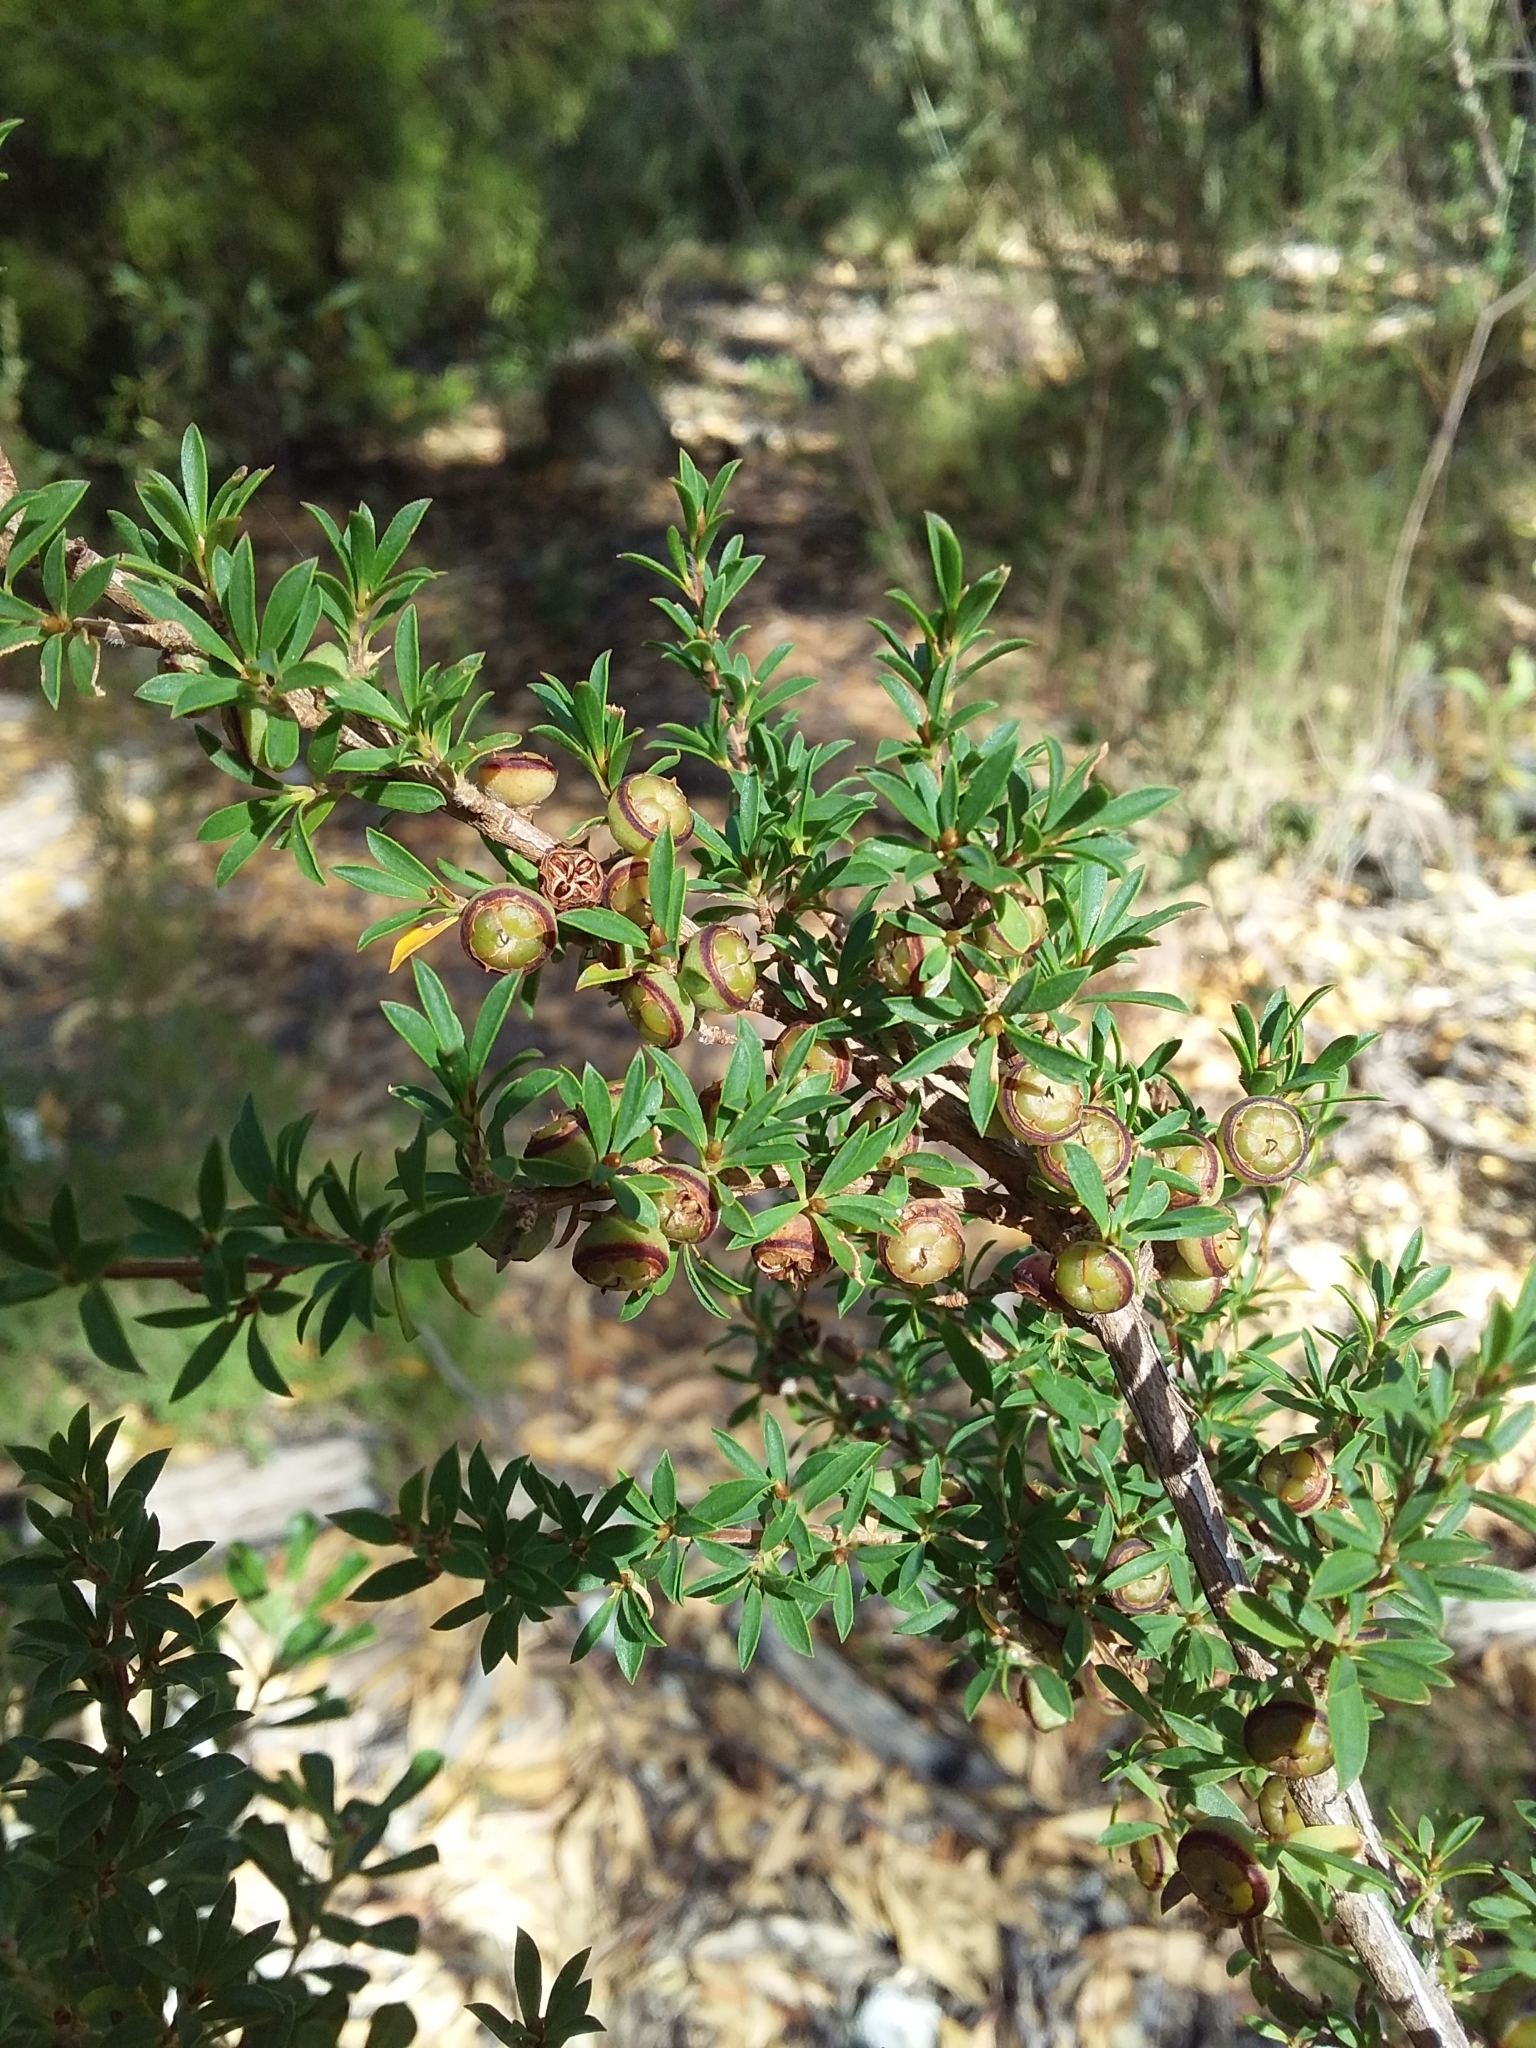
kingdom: Plantae
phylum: Tracheophyta
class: Magnoliopsida
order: Myrtales
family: Myrtaceae
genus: Leptospermum
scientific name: Leptospermum myrsinoides
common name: Heath teatree
